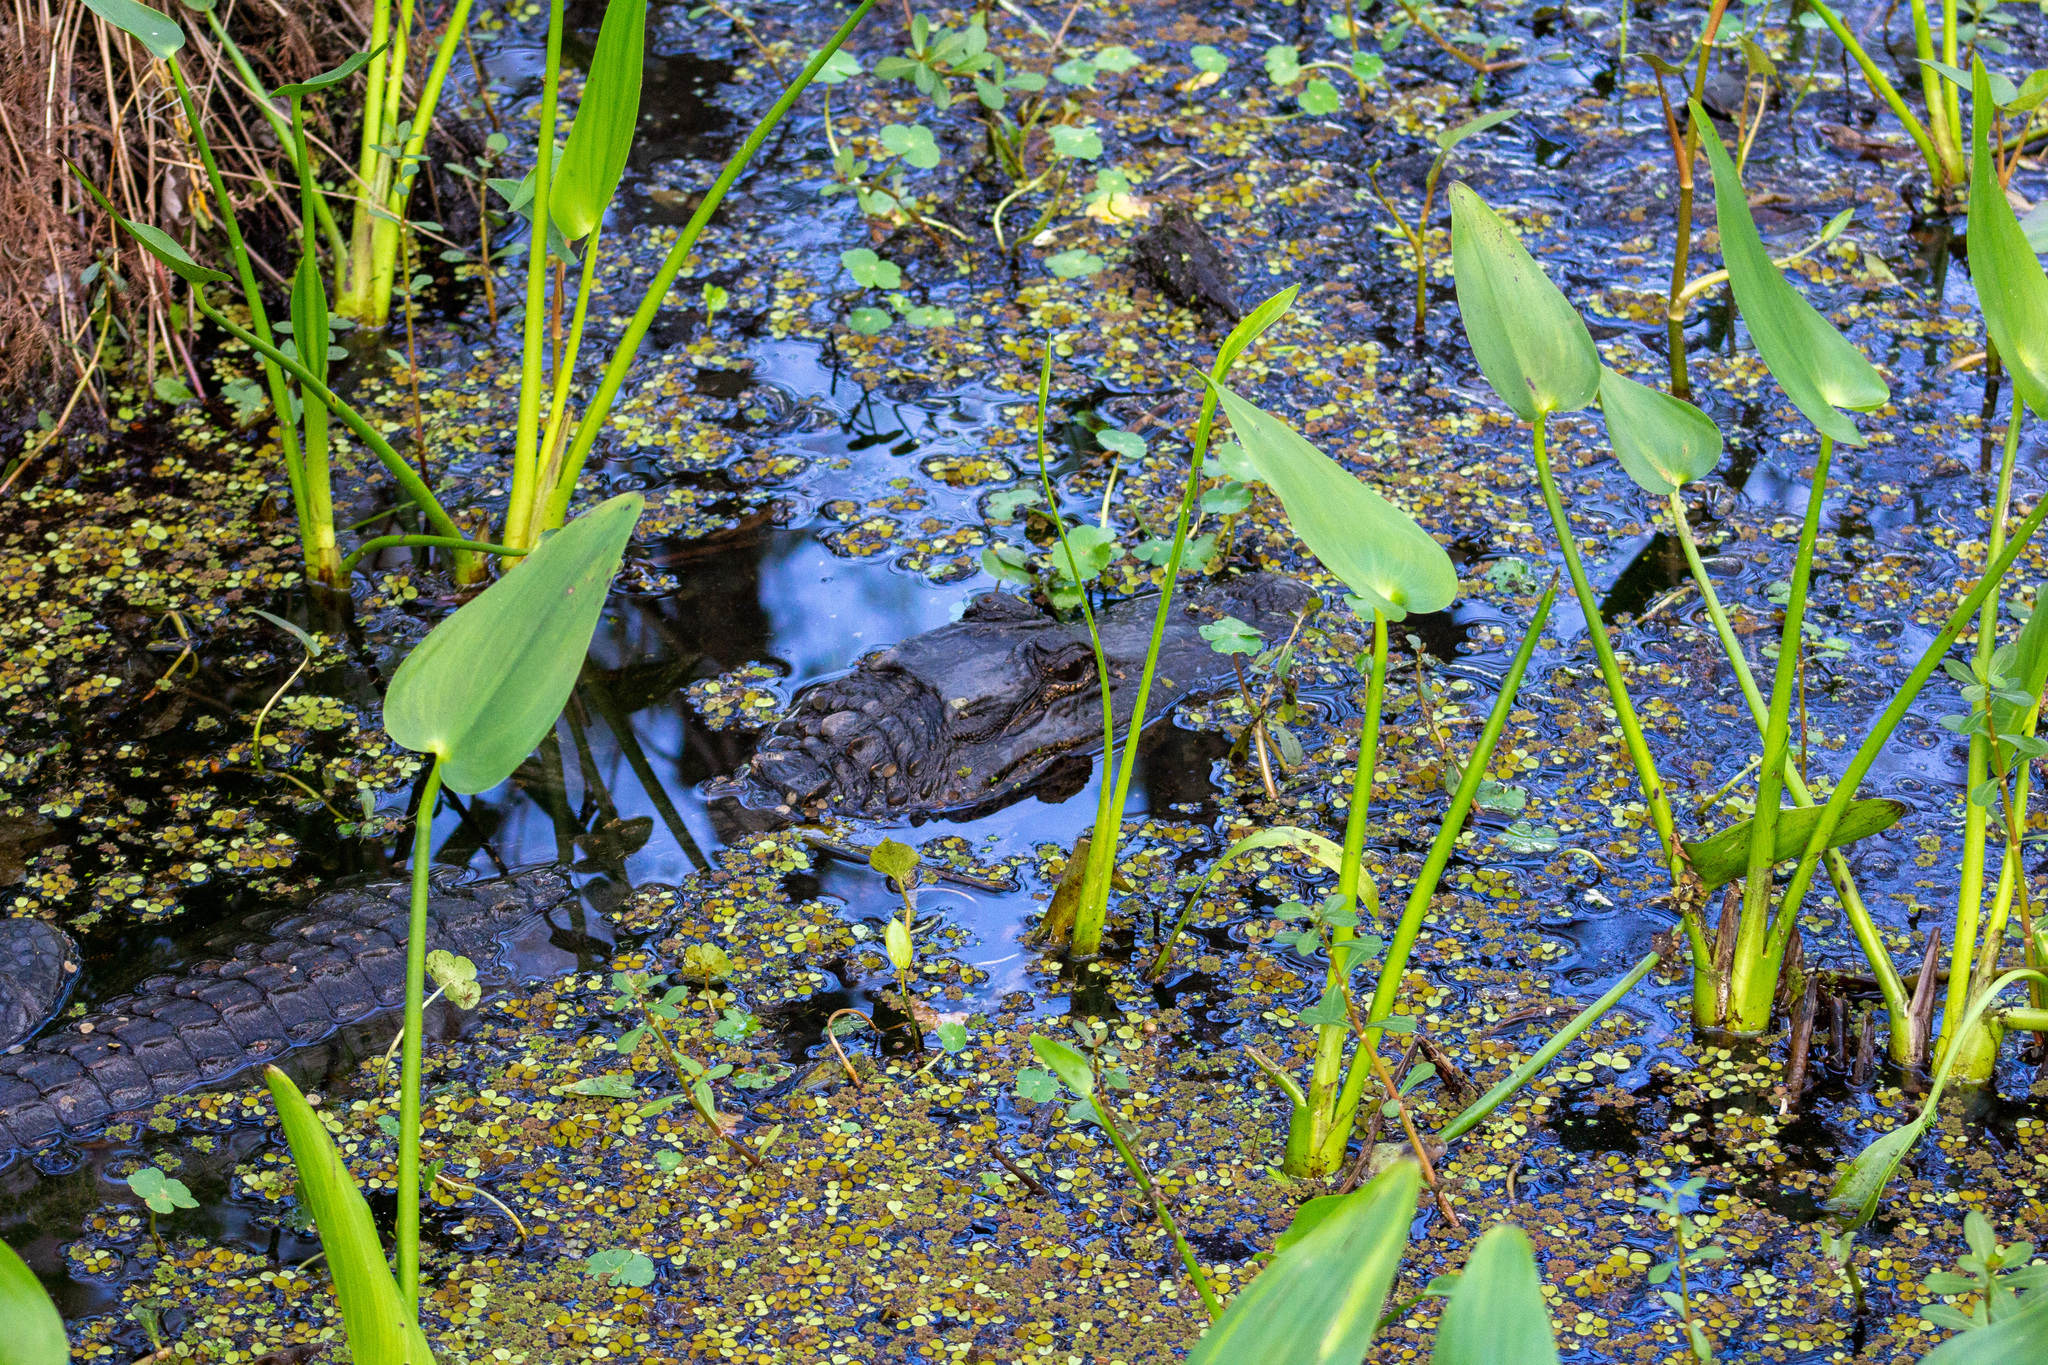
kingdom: Animalia
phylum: Chordata
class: Crocodylia
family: Alligatoridae
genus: Alligator
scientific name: Alligator mississippiensis
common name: American alligator
